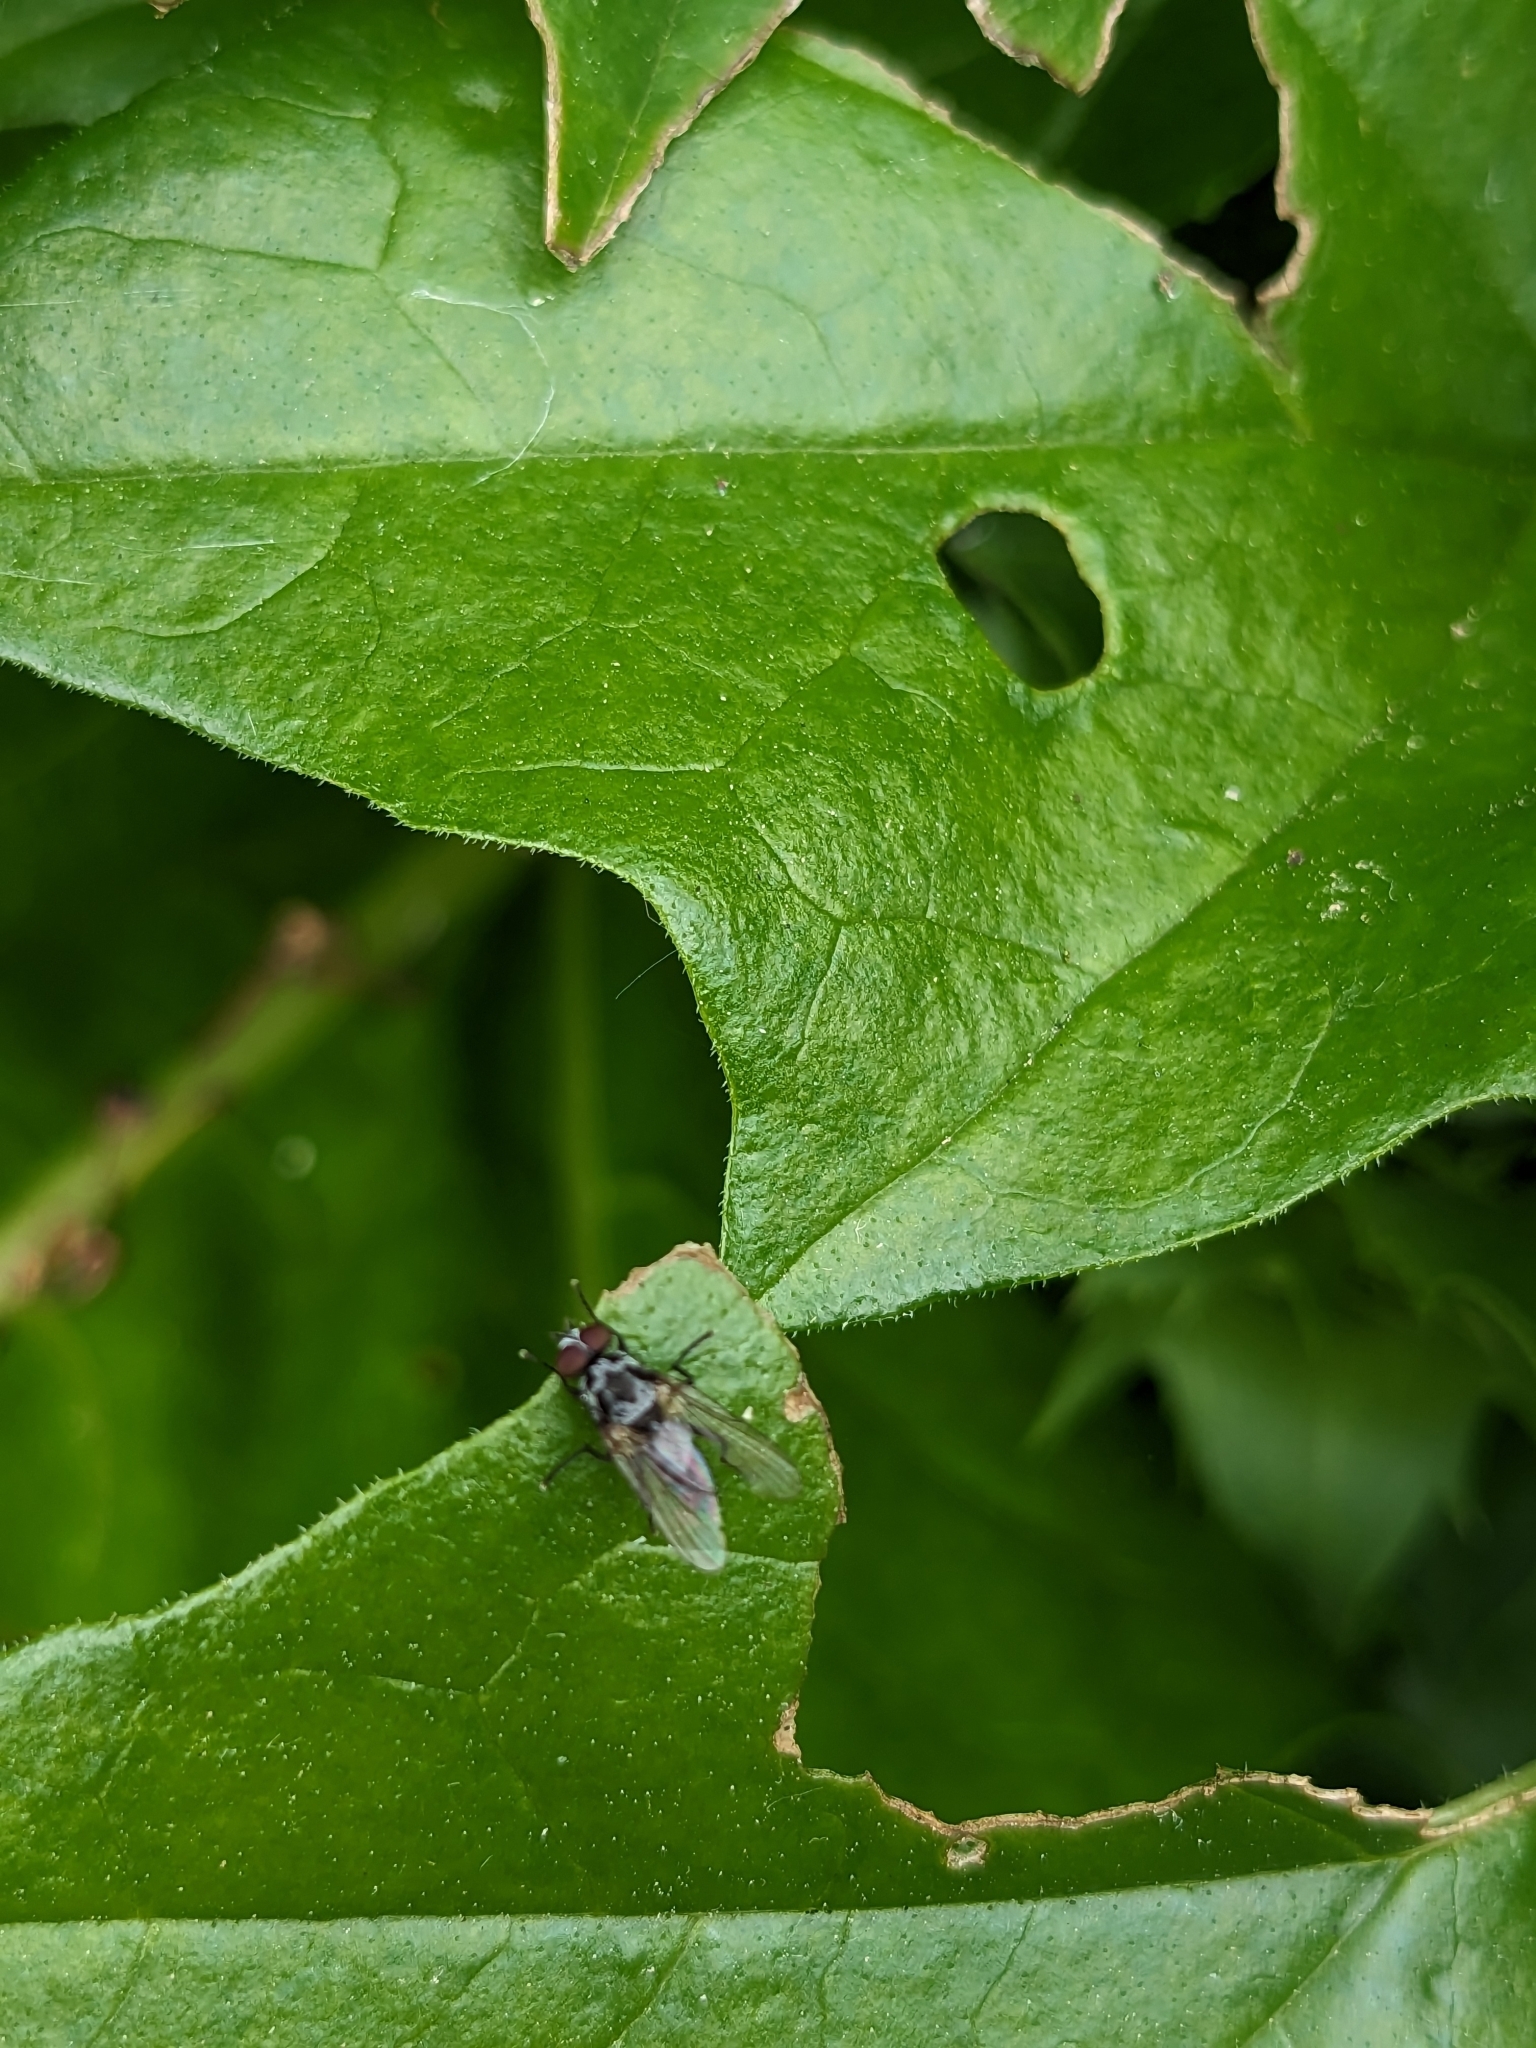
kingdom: Animalia
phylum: Arthropoda
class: Insecta
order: Diptera
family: Anthomyiidae
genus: Anthomyia
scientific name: Anthomyia procellaris
